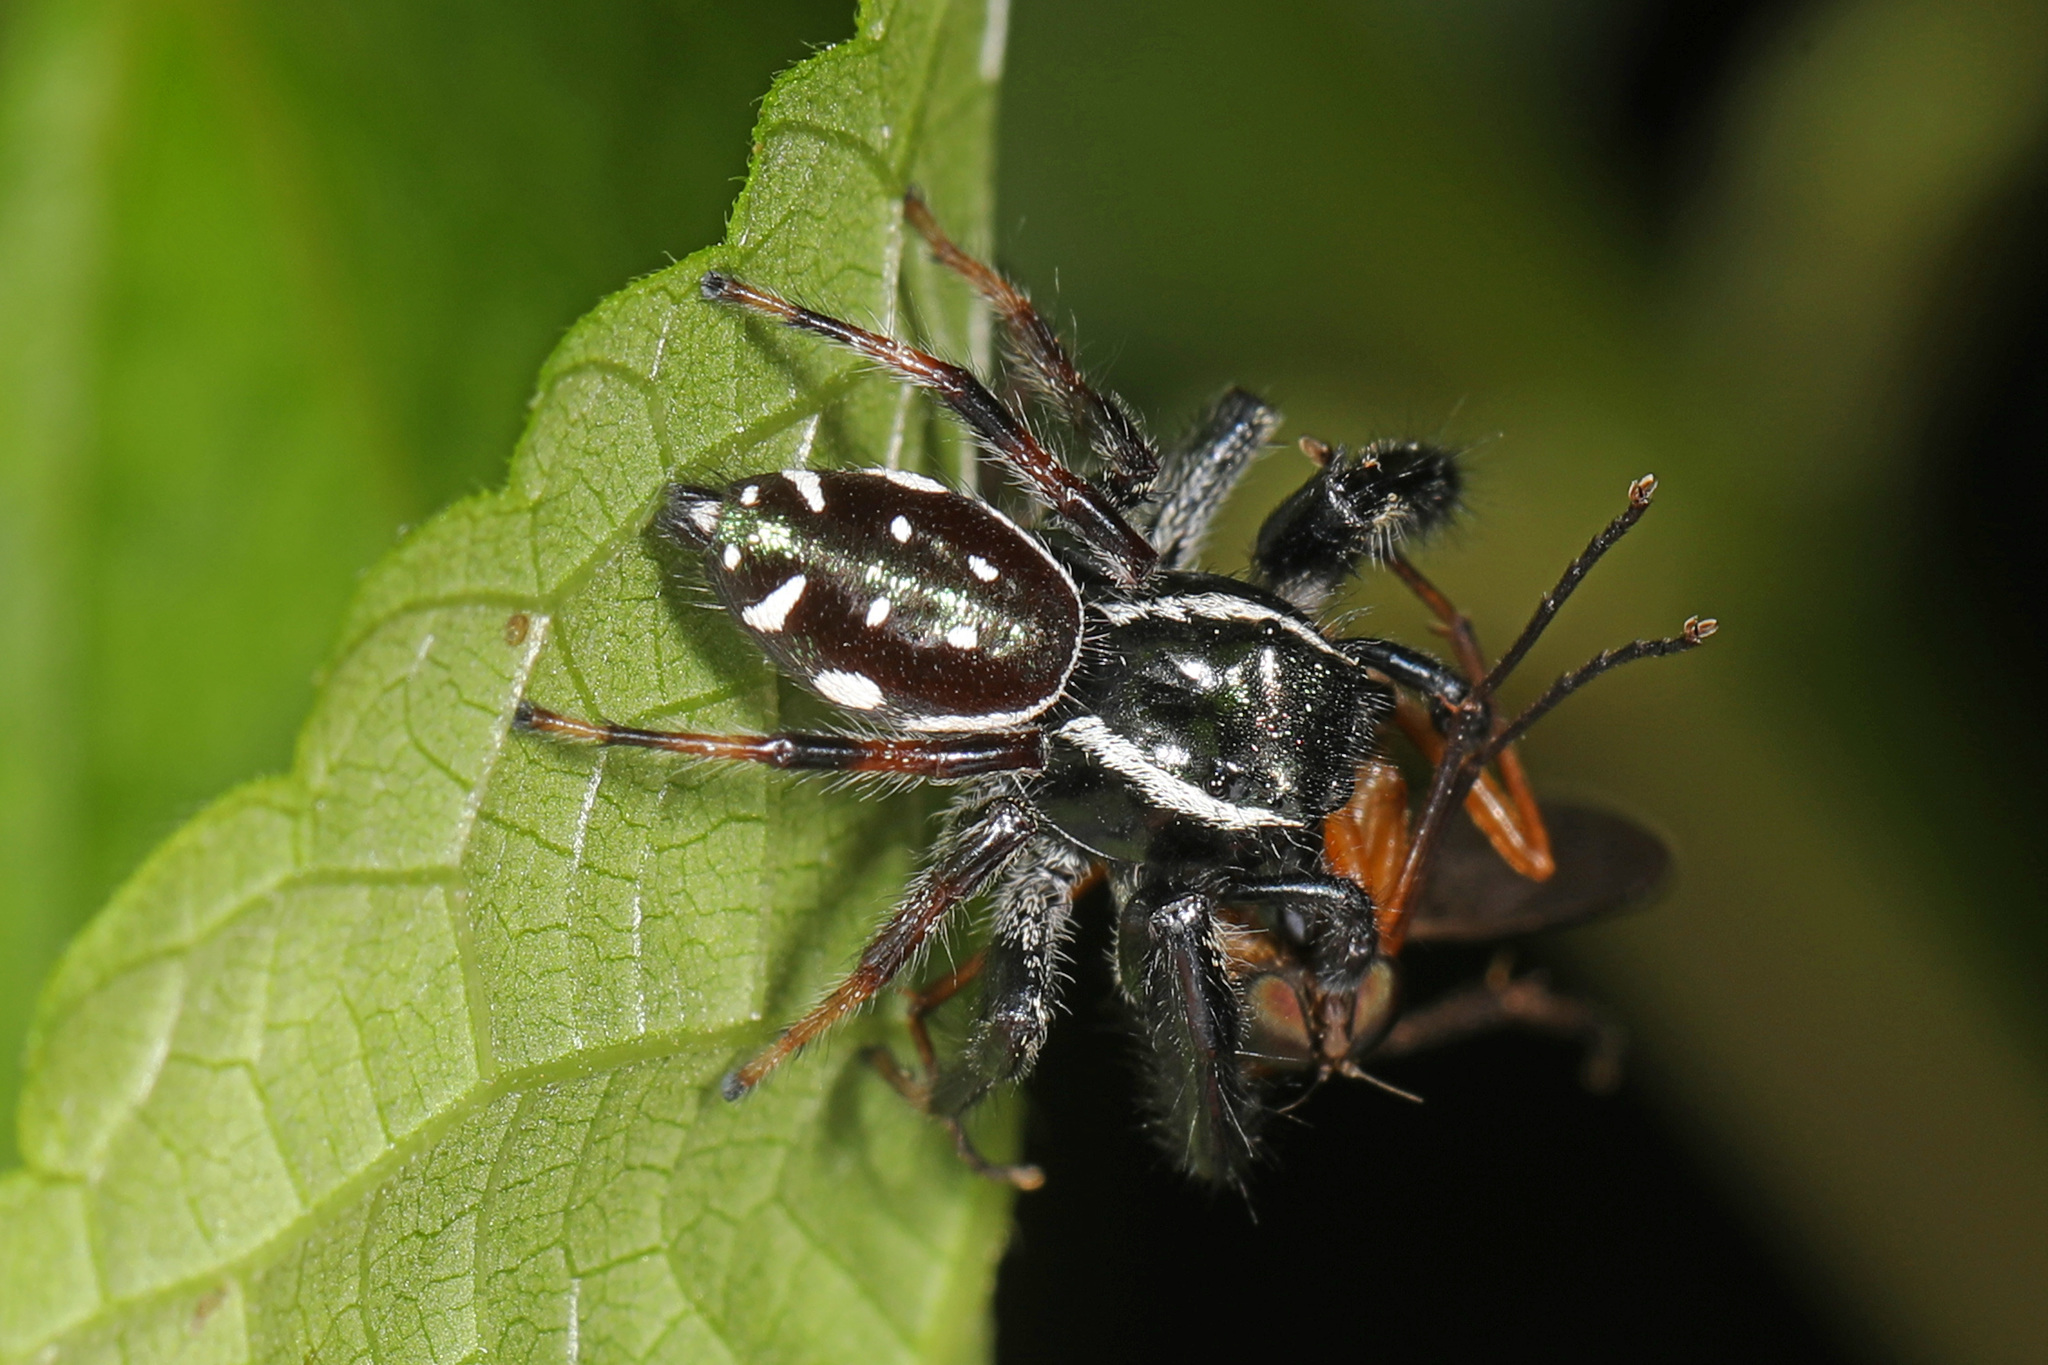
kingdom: Animalia
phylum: Arthropoda
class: Arachnida
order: Araneae
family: Salticidae
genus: Paraphidippus
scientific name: Paraphidippus aurantius
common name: Jumping spiders
